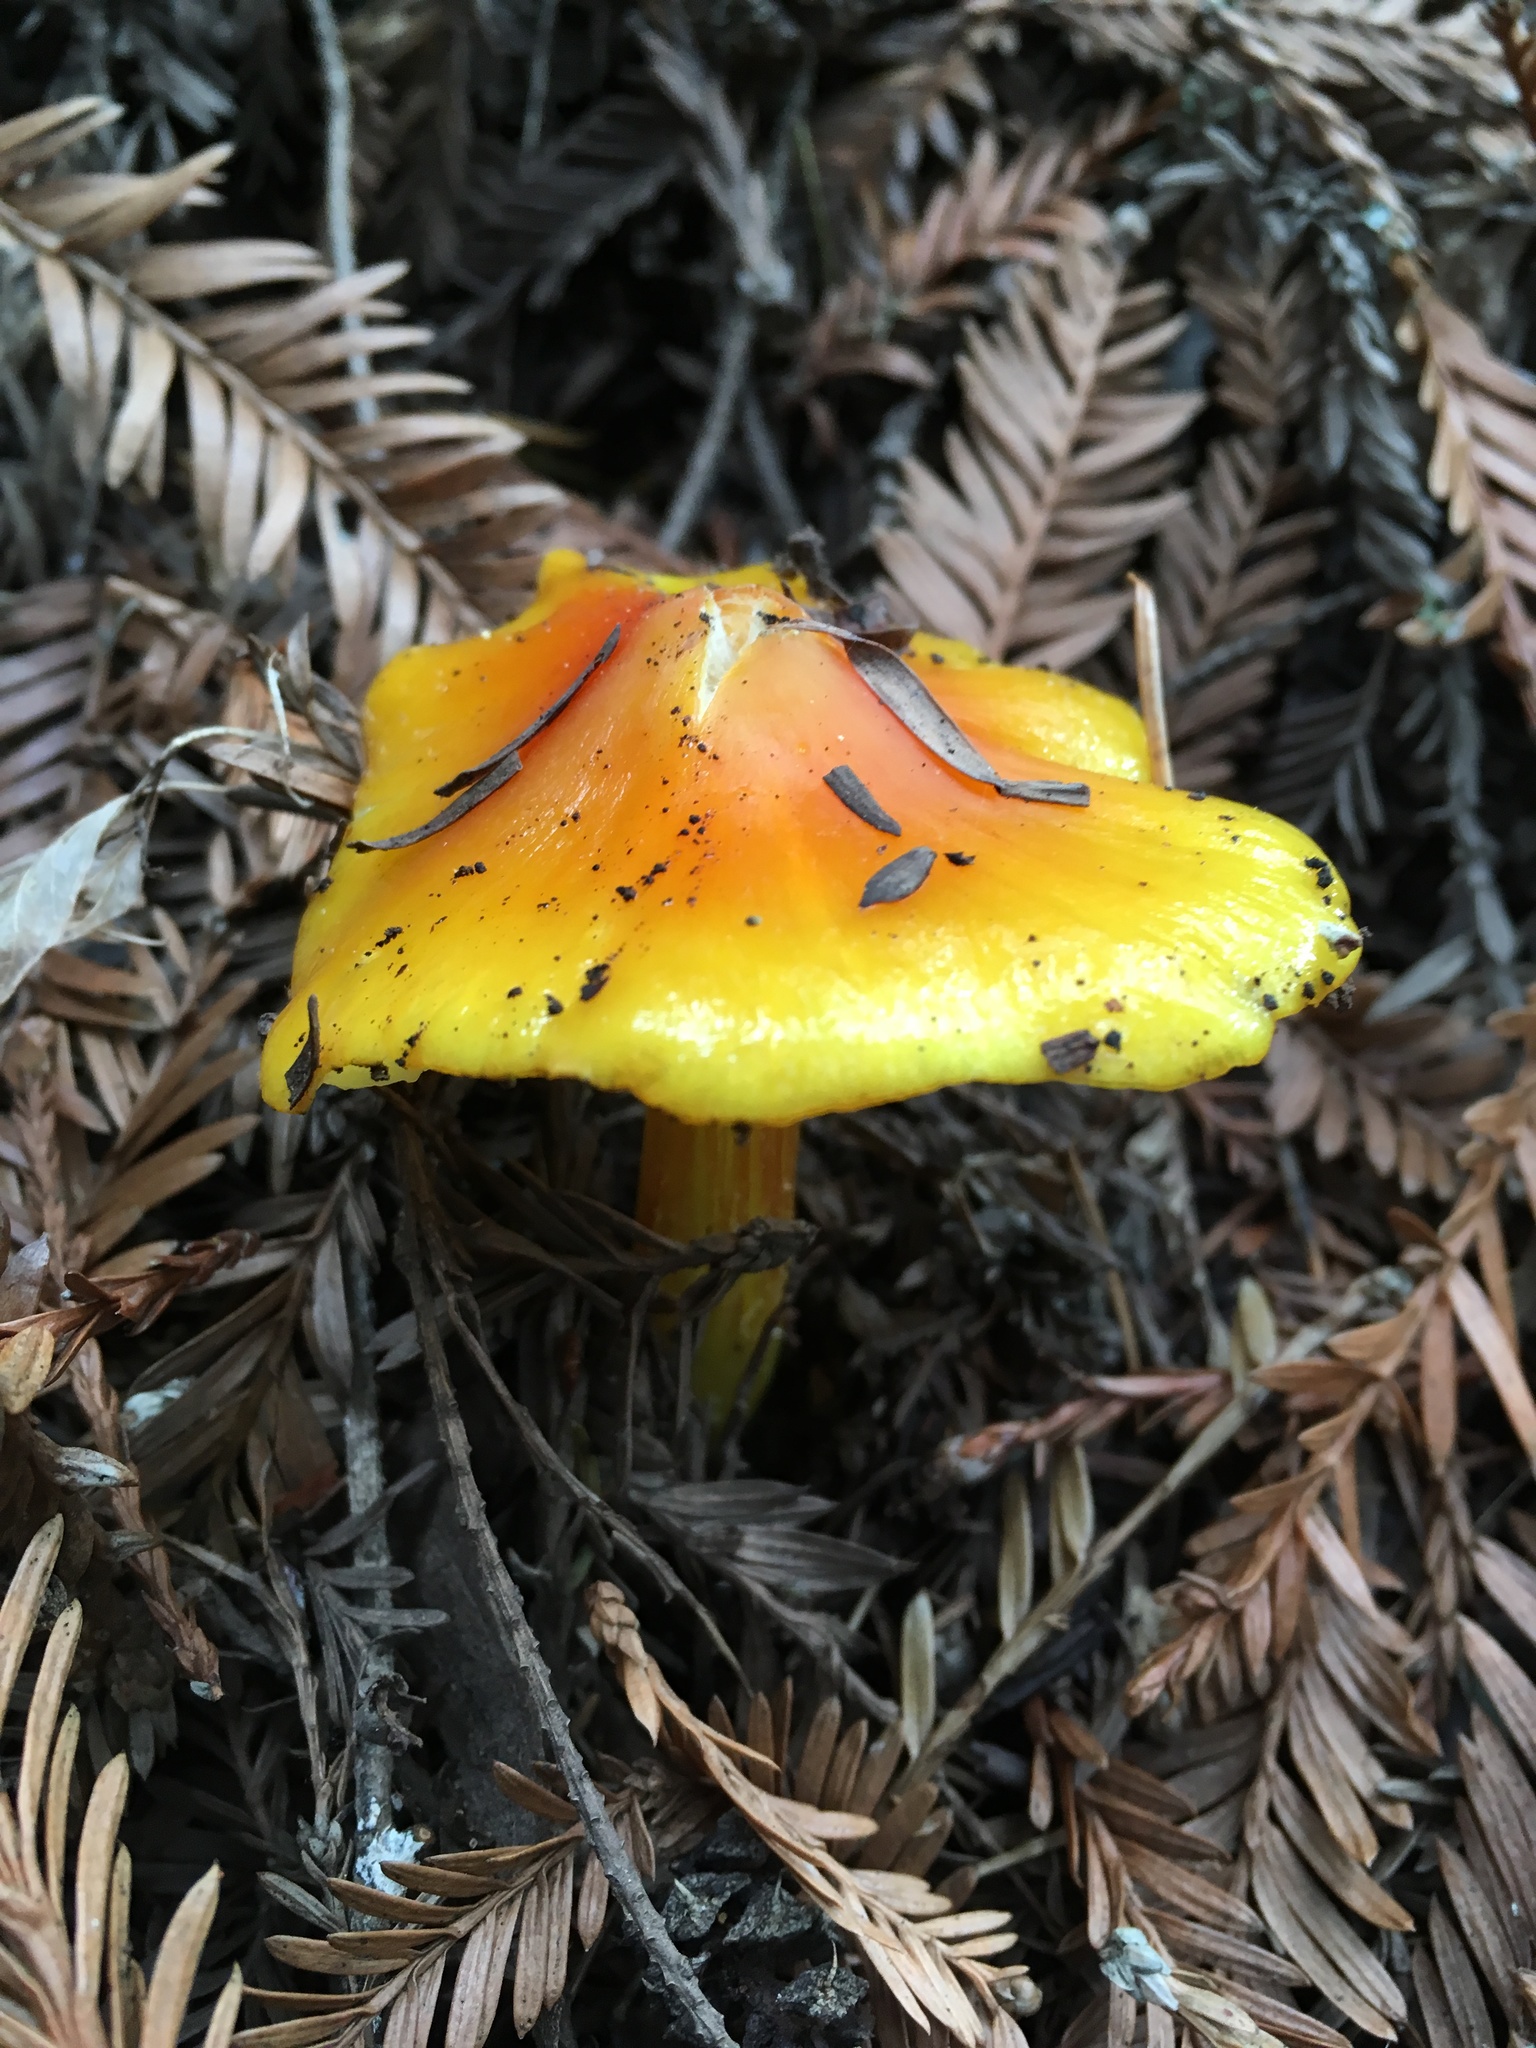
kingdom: Fungi
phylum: Basidiomycota
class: Agaricomycetes
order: Agaricales
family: Hygrophoraceae
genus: Hygrocybe
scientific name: Hygrocybe singeri
